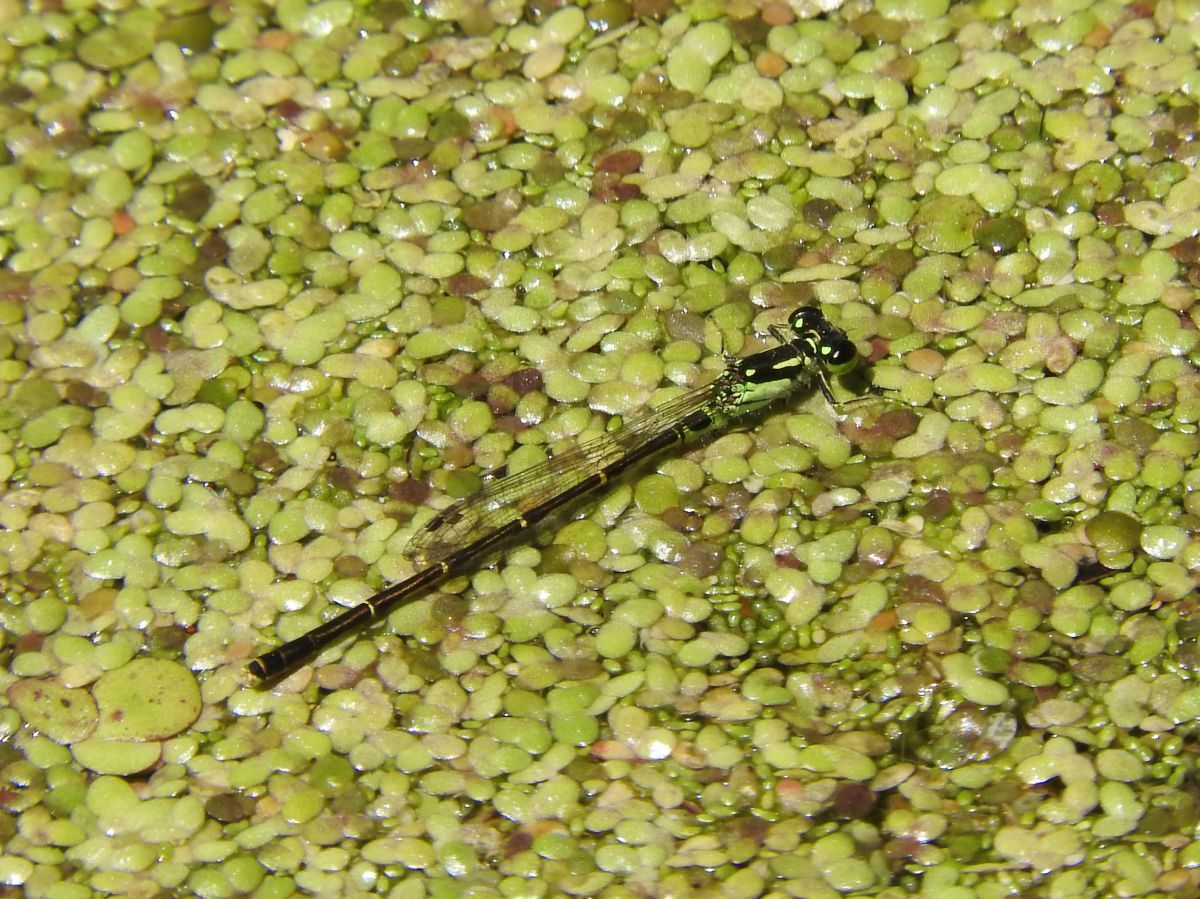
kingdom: Animalia
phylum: Arthropoda
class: Insecta
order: Odonata
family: Coenagrionidae
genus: Ischnura
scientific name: Ischnura posita
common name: Fragile forktail
